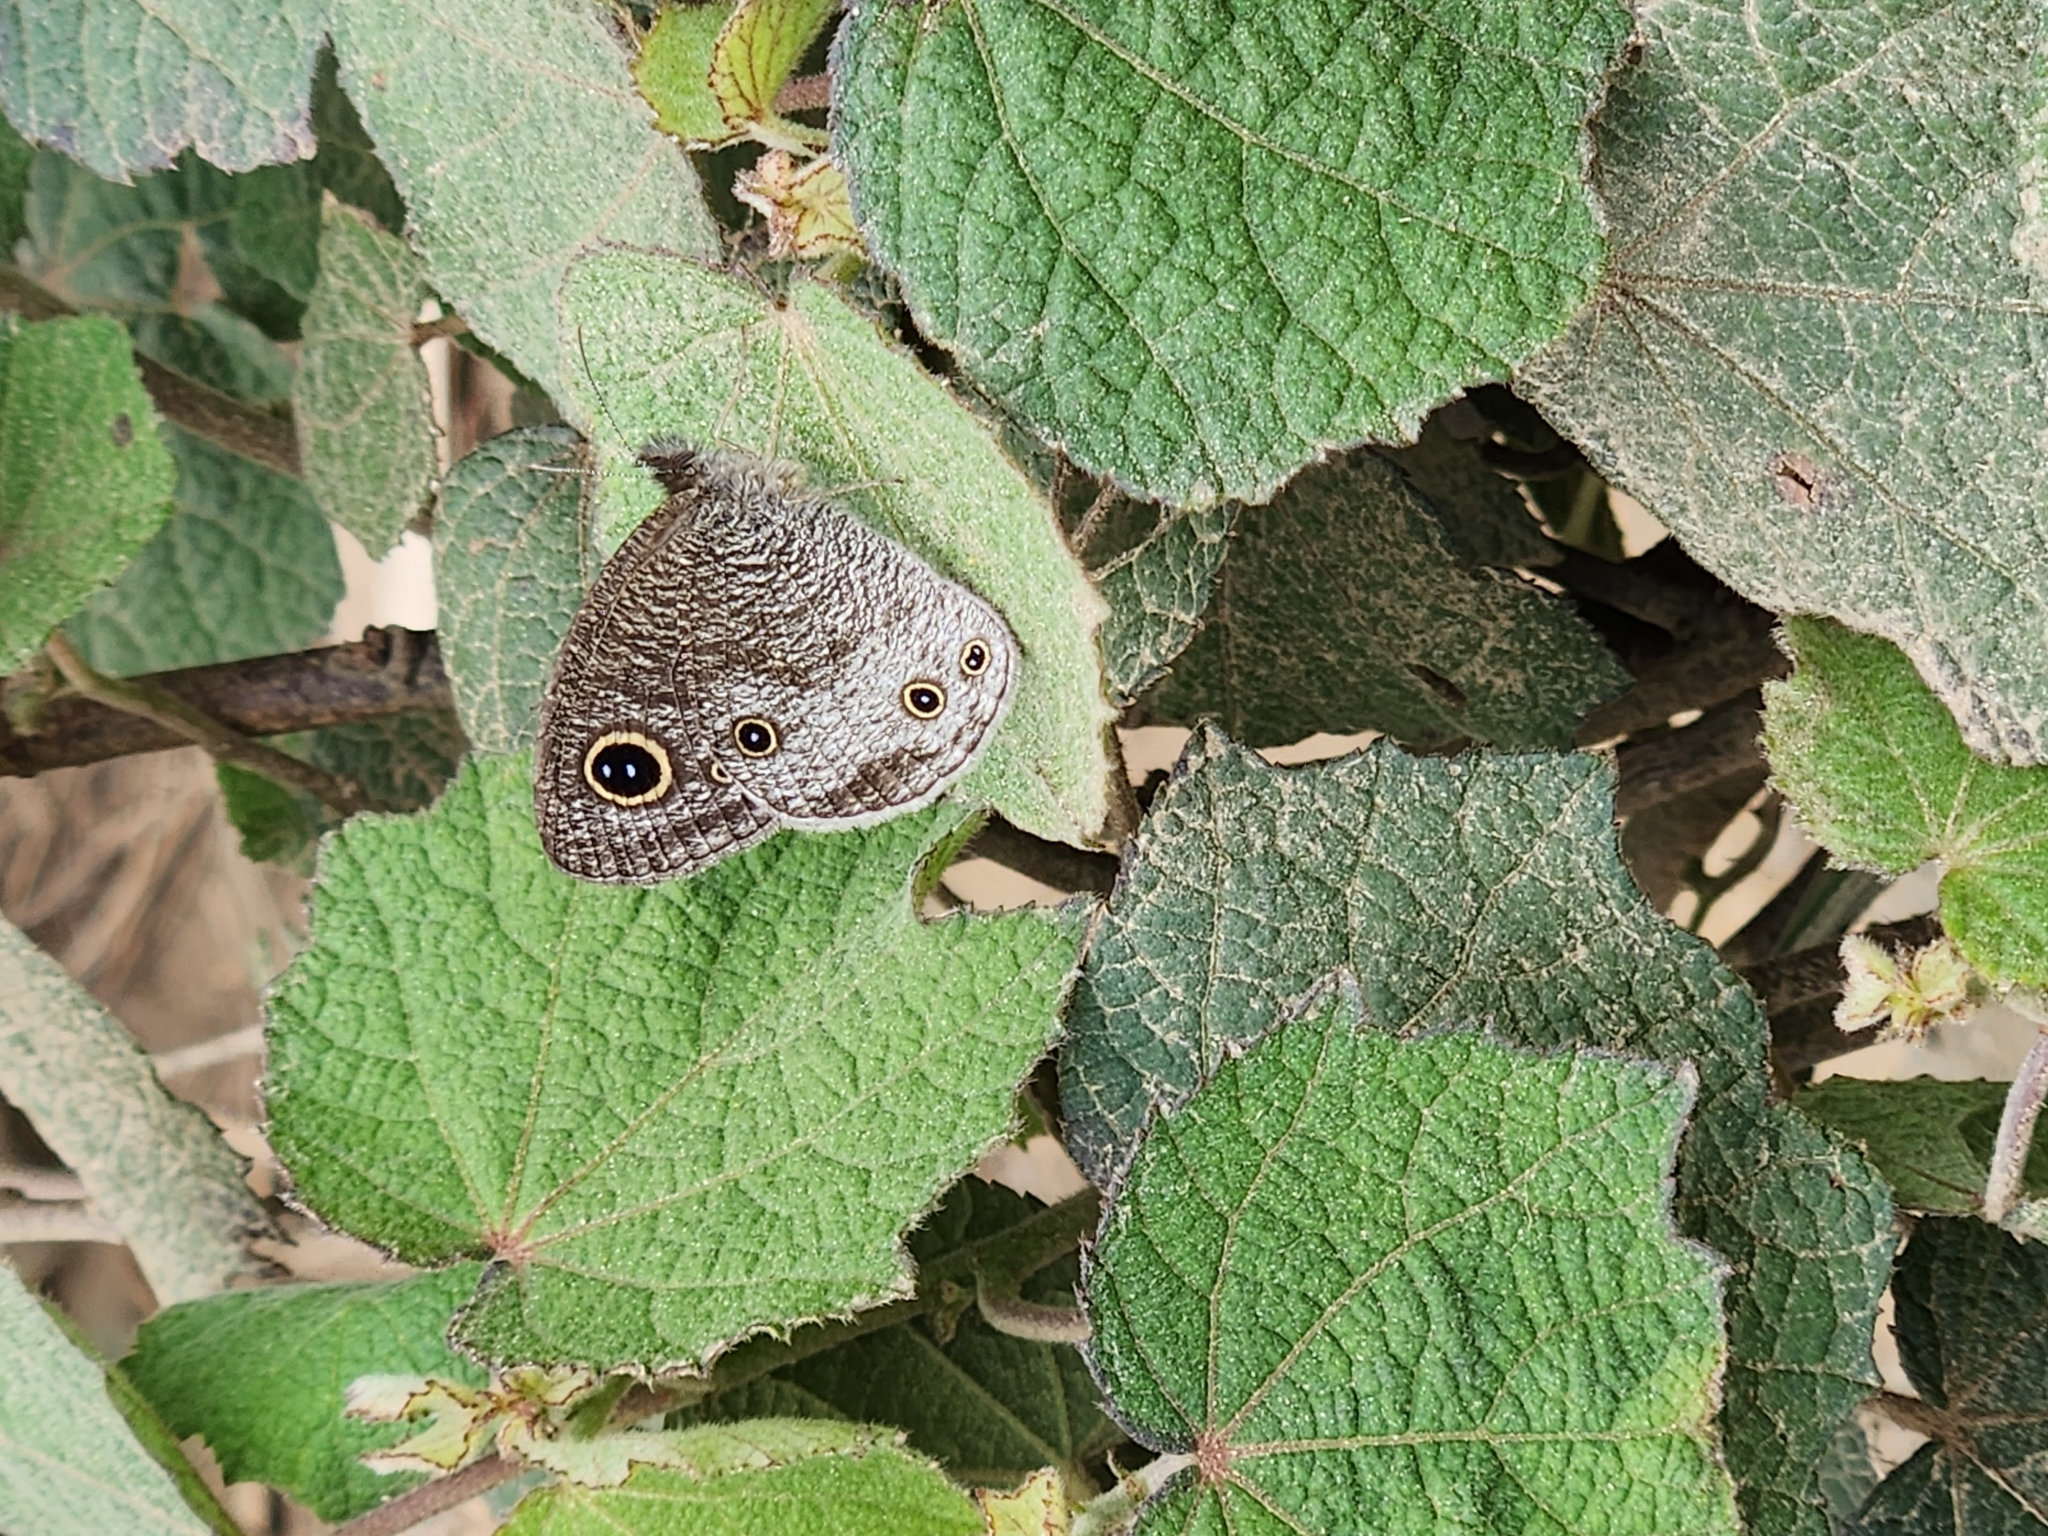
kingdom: Animalia
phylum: Arthropoda
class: Insecta
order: Lepidoptera
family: Nymphalidae
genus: Ypthima
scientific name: Ypthima multistriata
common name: Striated ringlet
